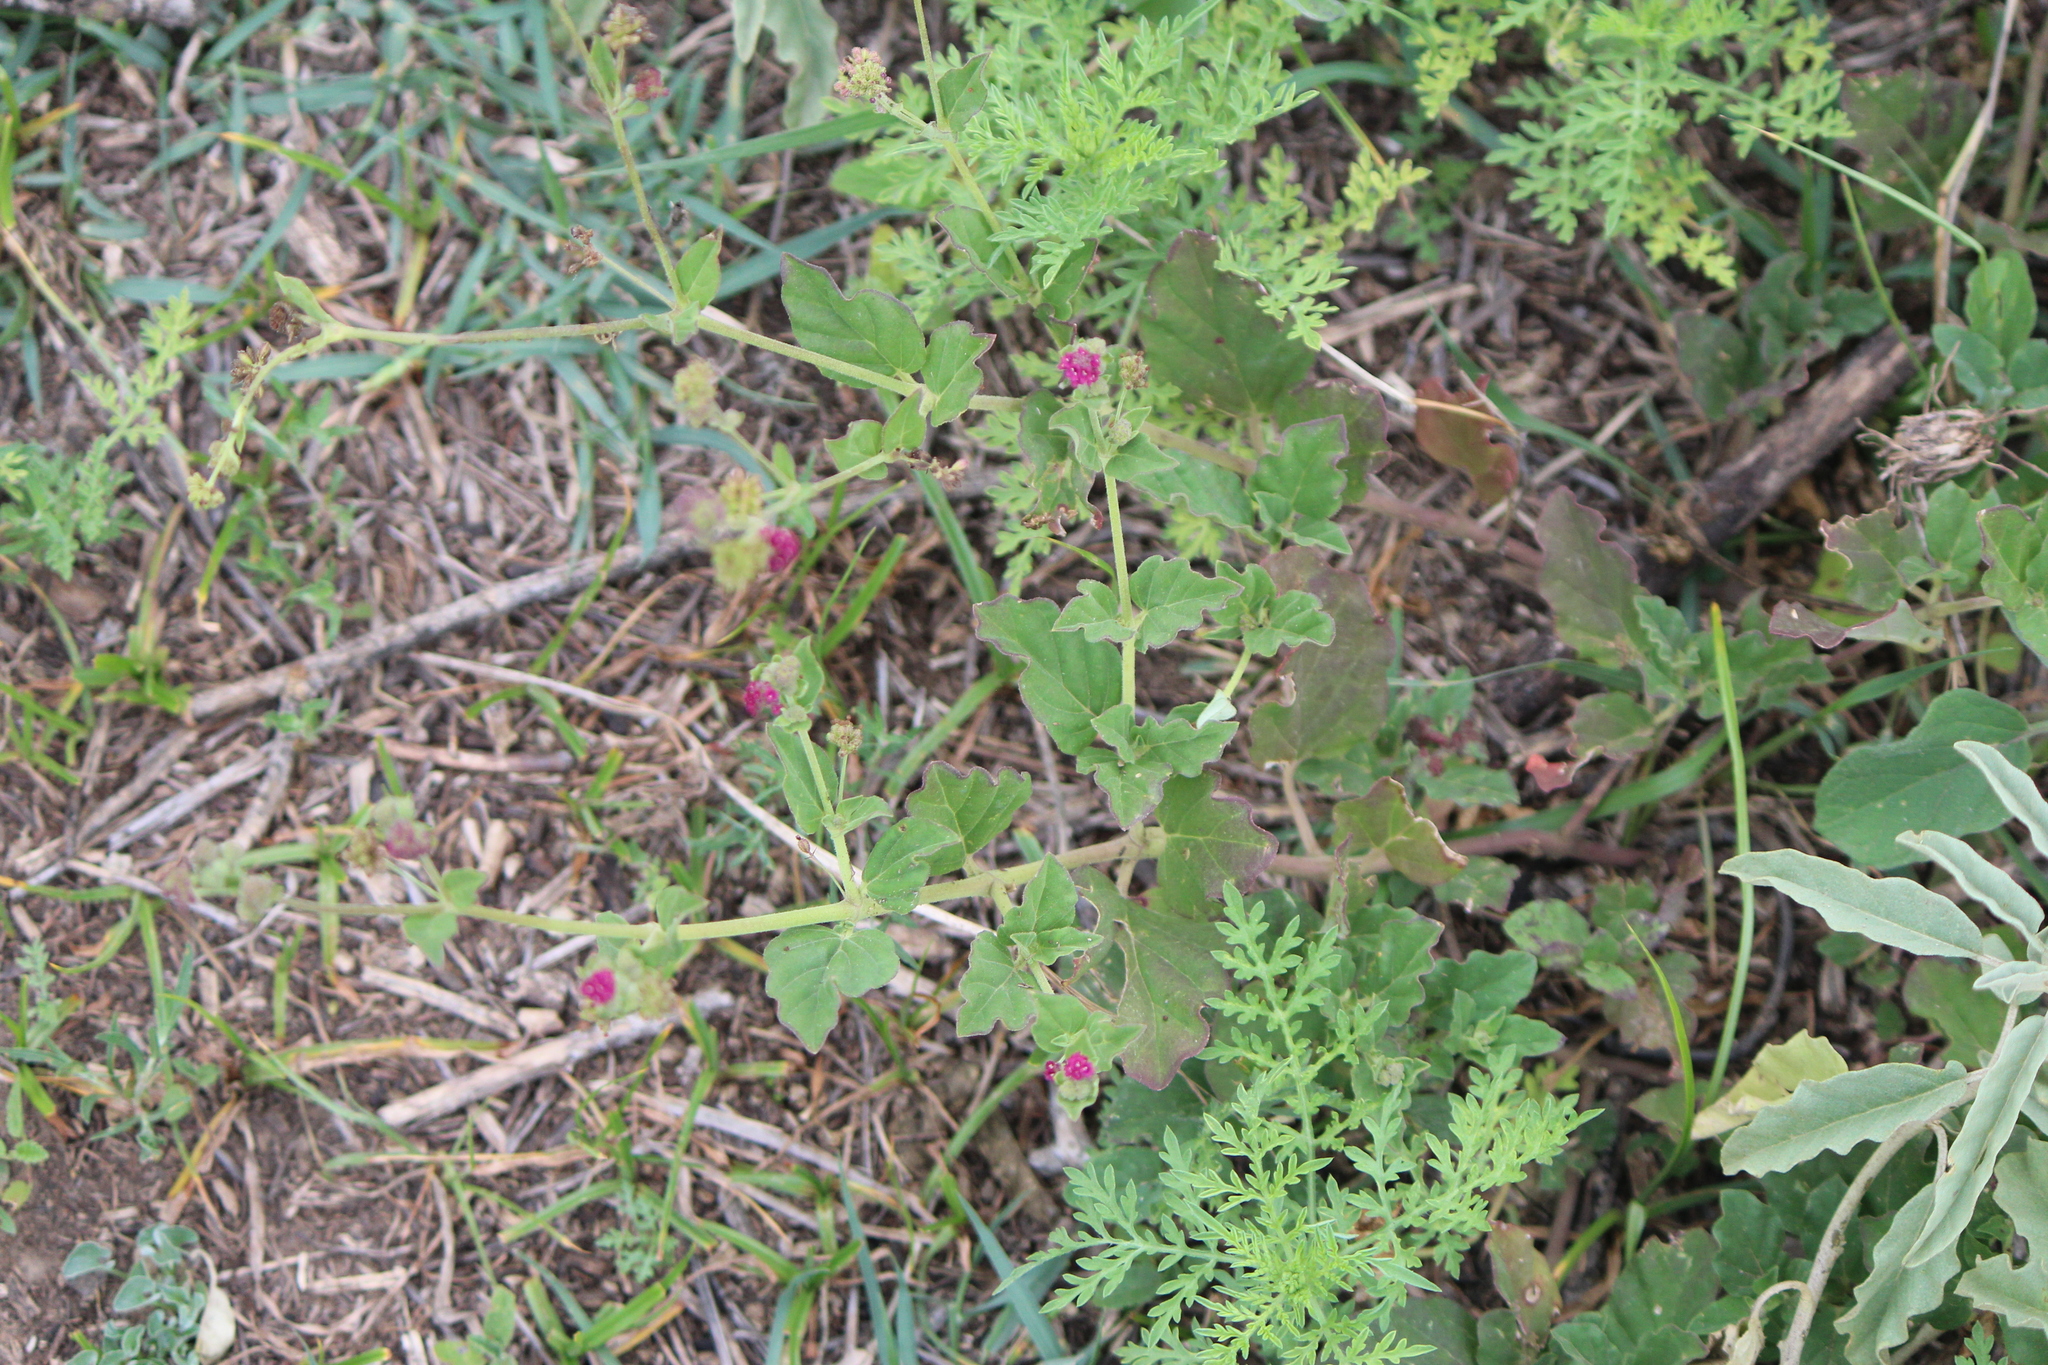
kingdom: Plantae
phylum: Tracheophyta
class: Magnoliopsida
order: Caryophyllales
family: Nyctaginaceae
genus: Boerhavia
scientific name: Boerhavia coccinea
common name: Scarlet spiderling
